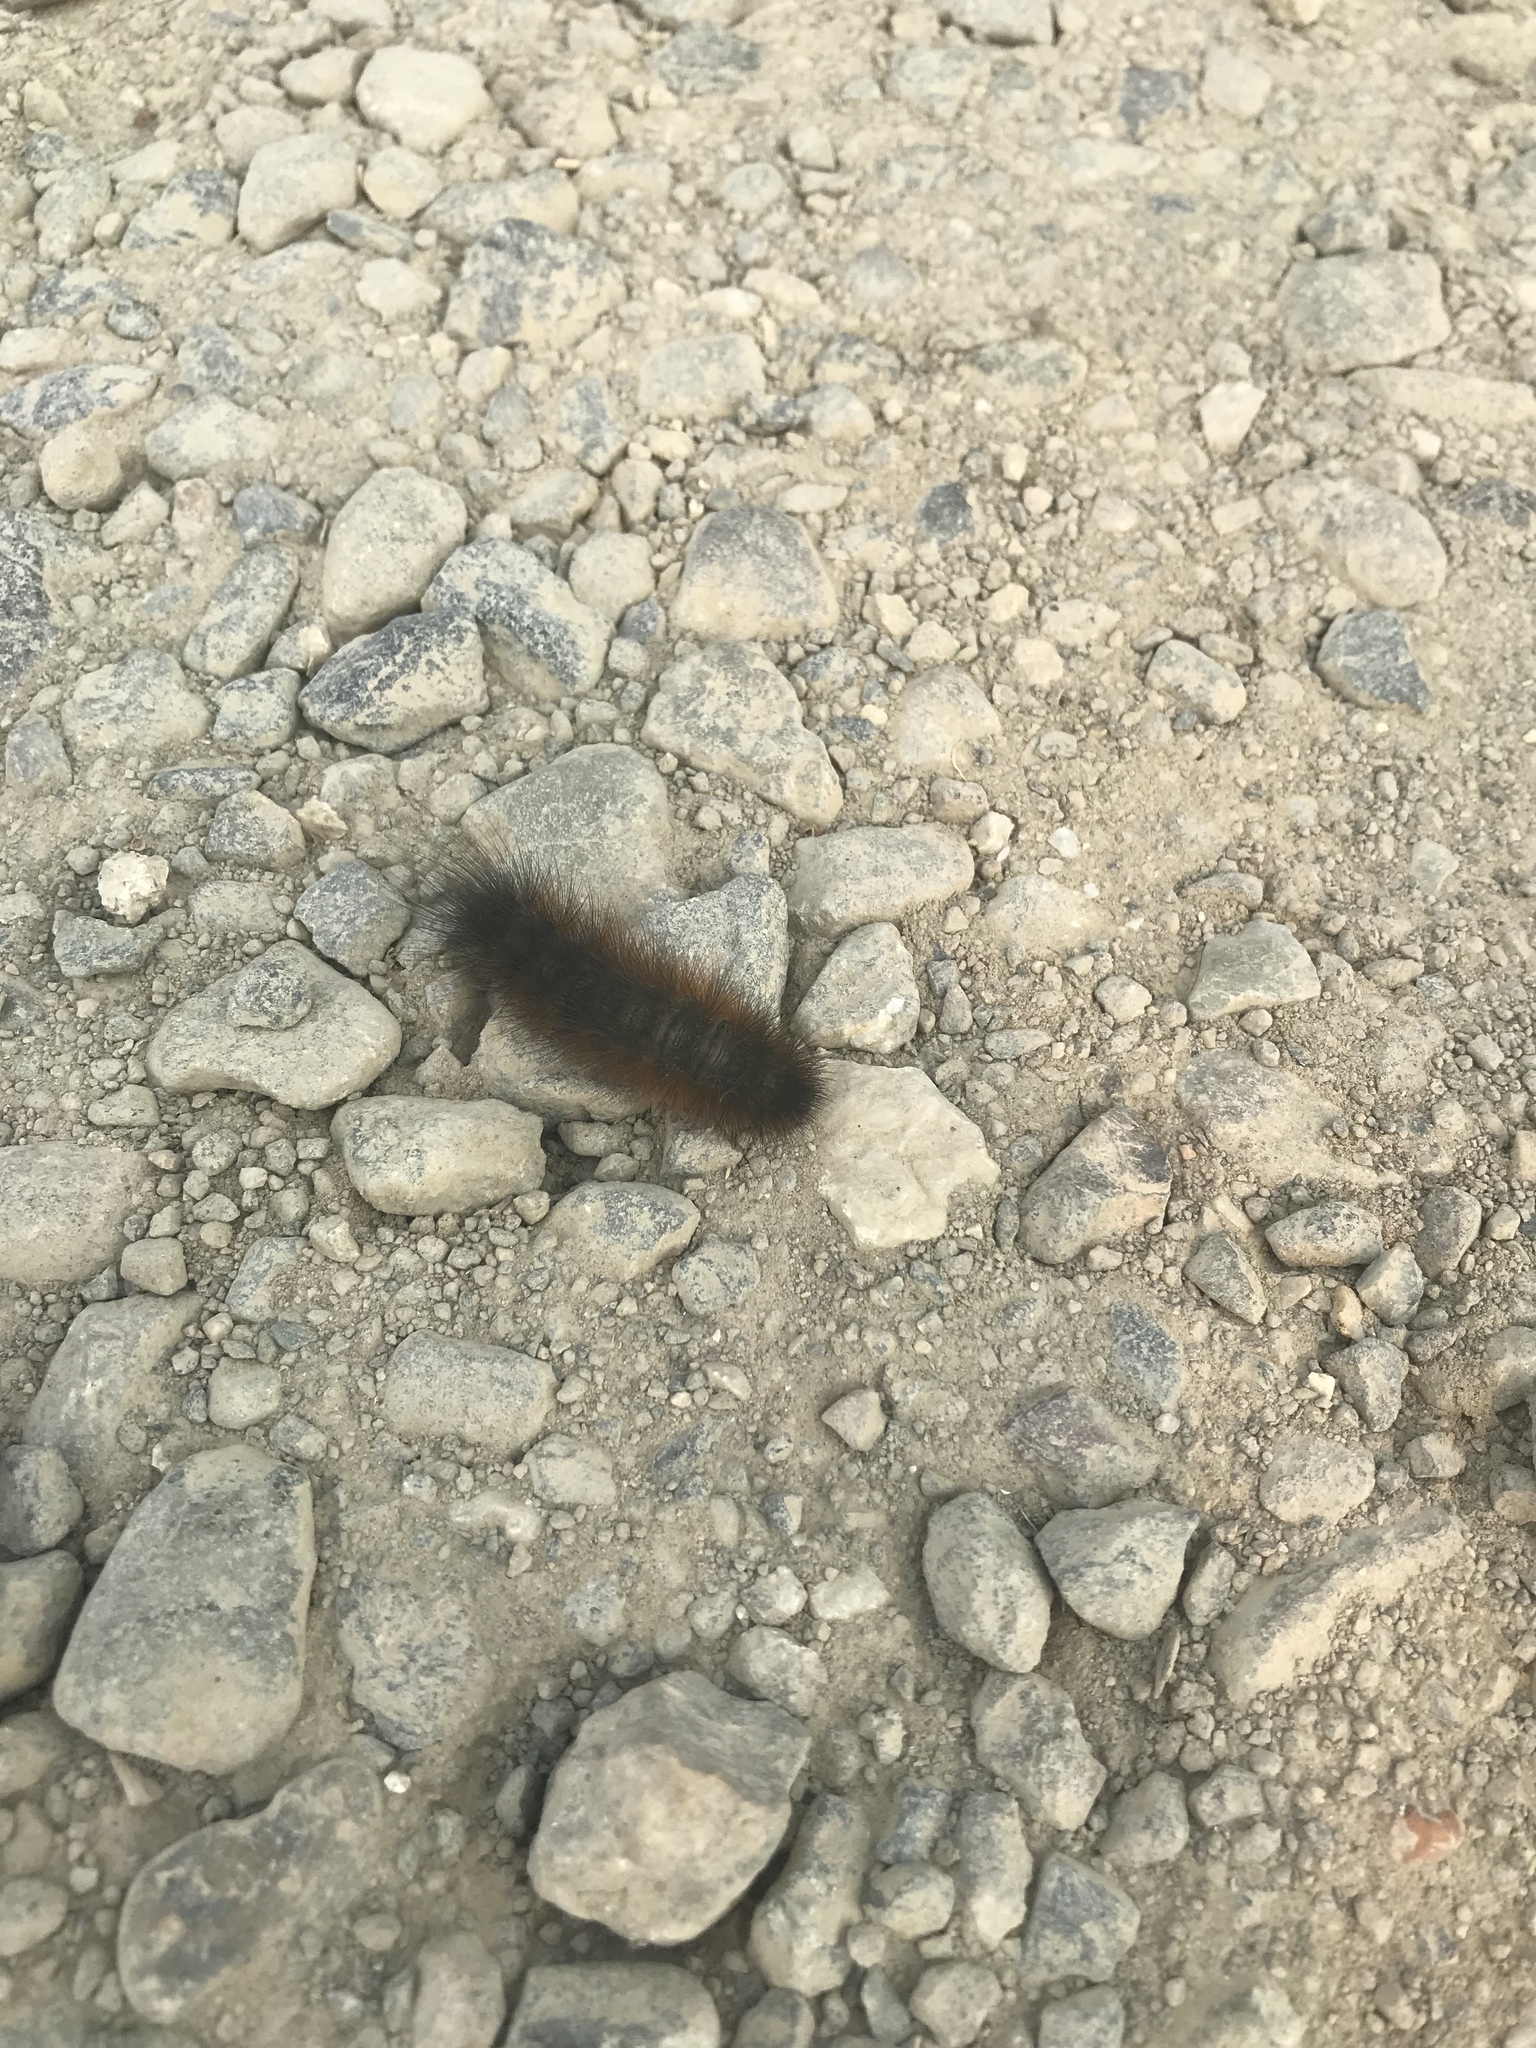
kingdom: Animalia
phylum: Arthropoda
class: Insecta
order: Lepidoptera
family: Erebidae
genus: Pyrrharctia
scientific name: Pyrrharctia isabella
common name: Isabella tiger moth
